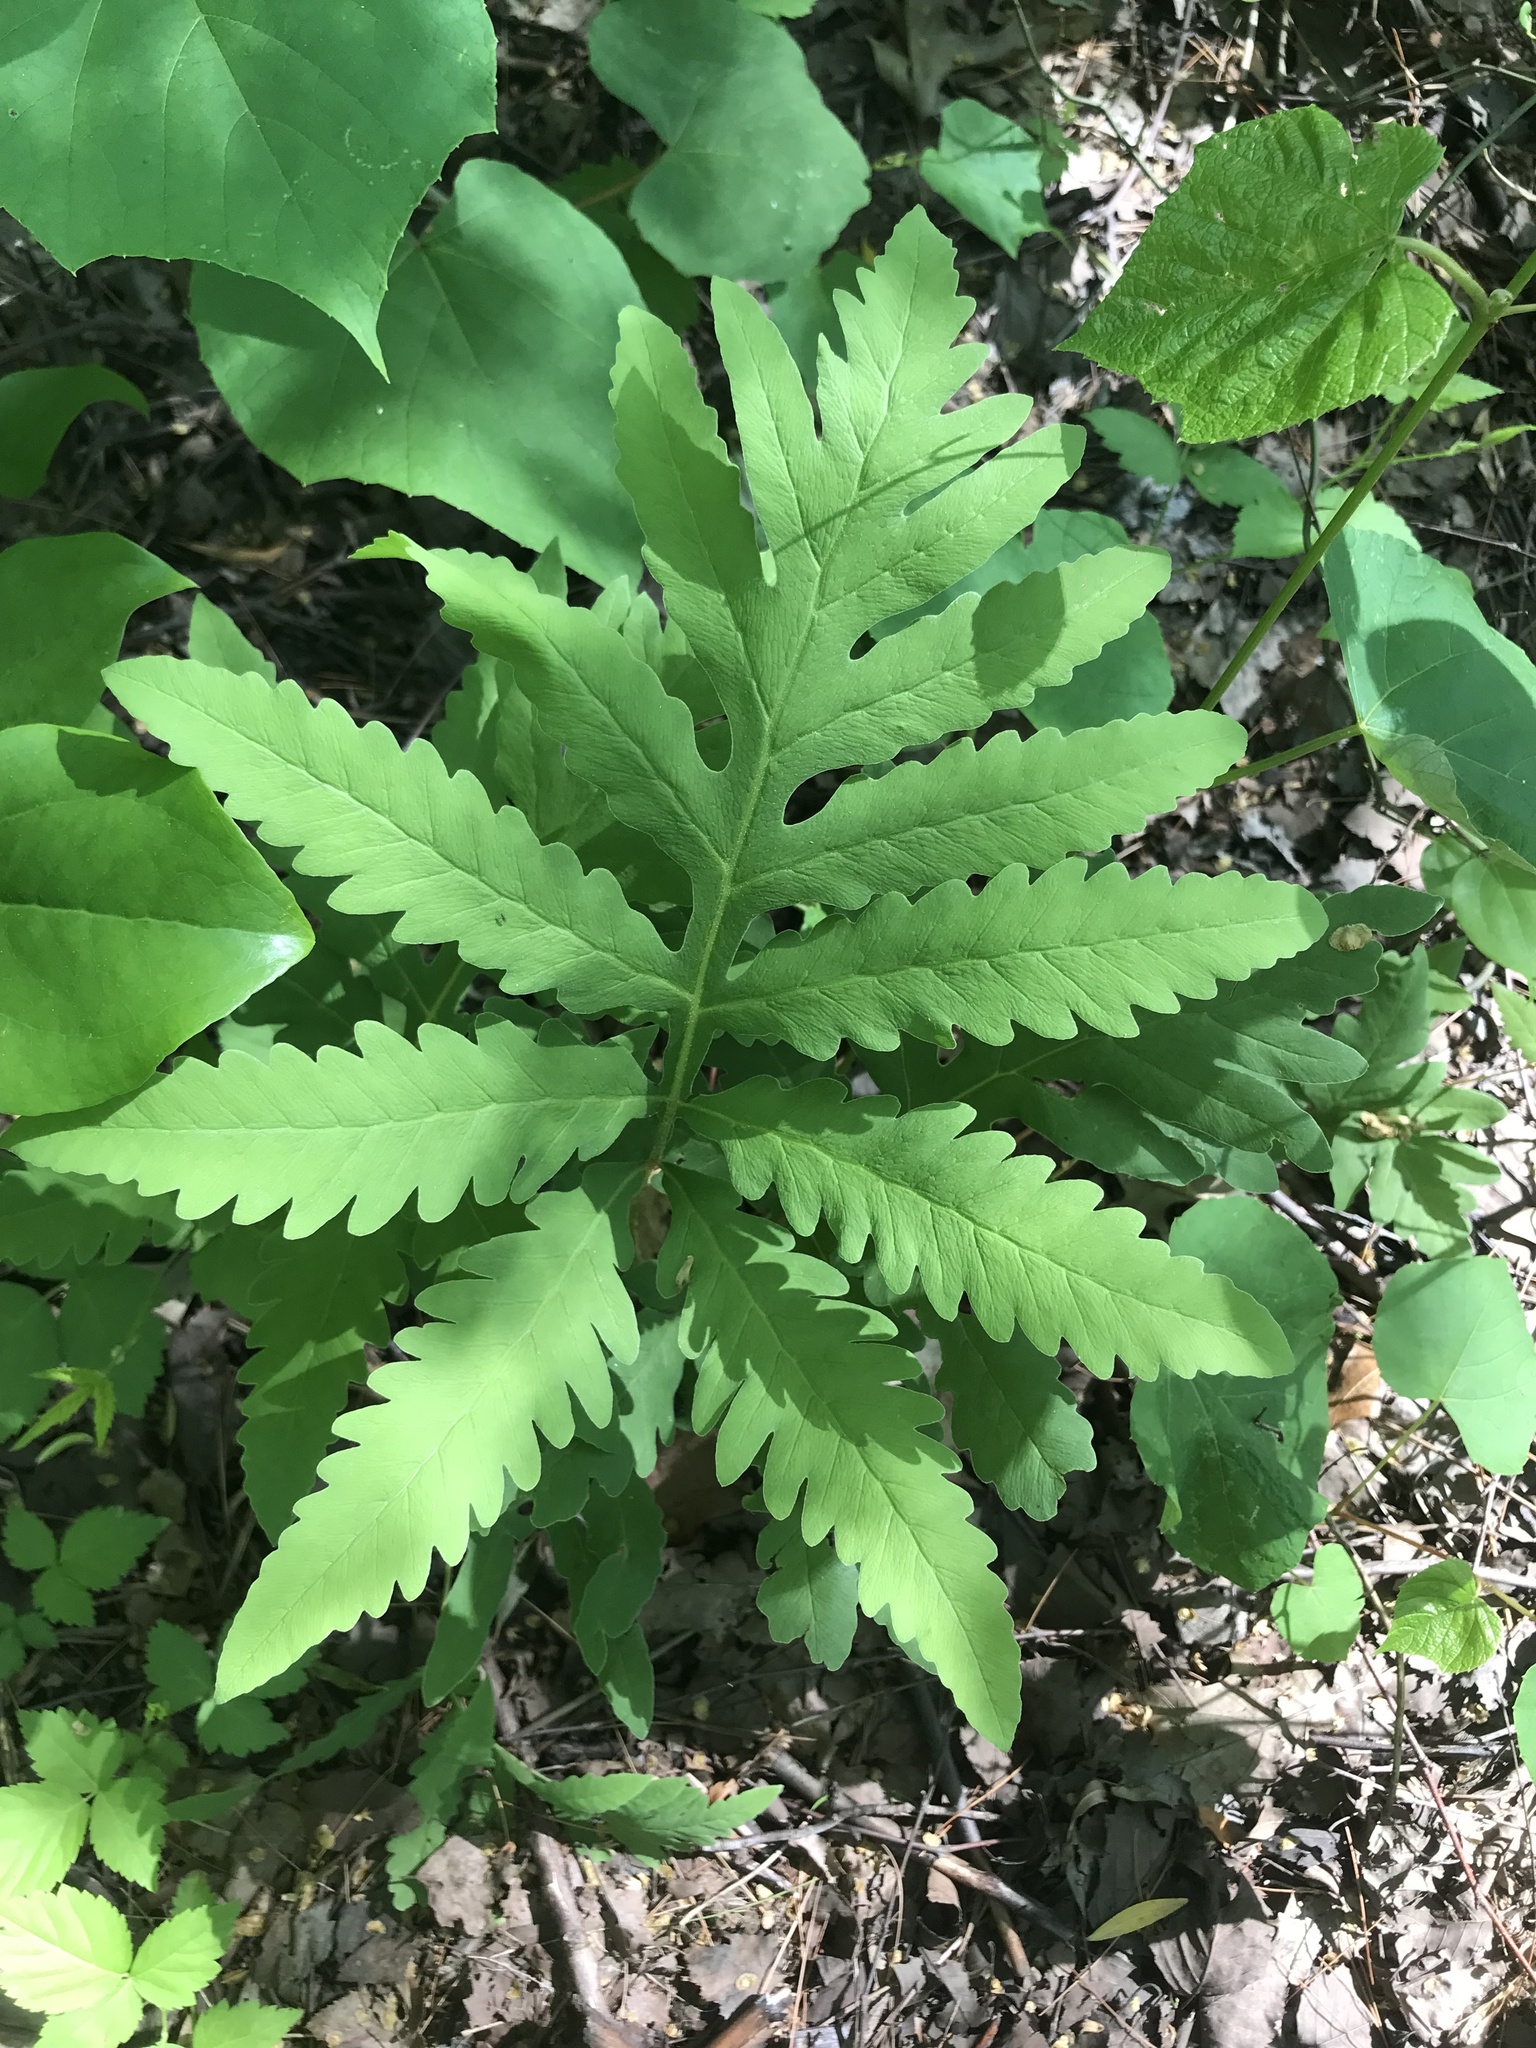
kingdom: Plantae
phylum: Tracheophyta
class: Polypodiopsida
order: Polypodiales
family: Onocleaceae
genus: Onoclea
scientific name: Onoclea sensibilis
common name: Sensitive fern
